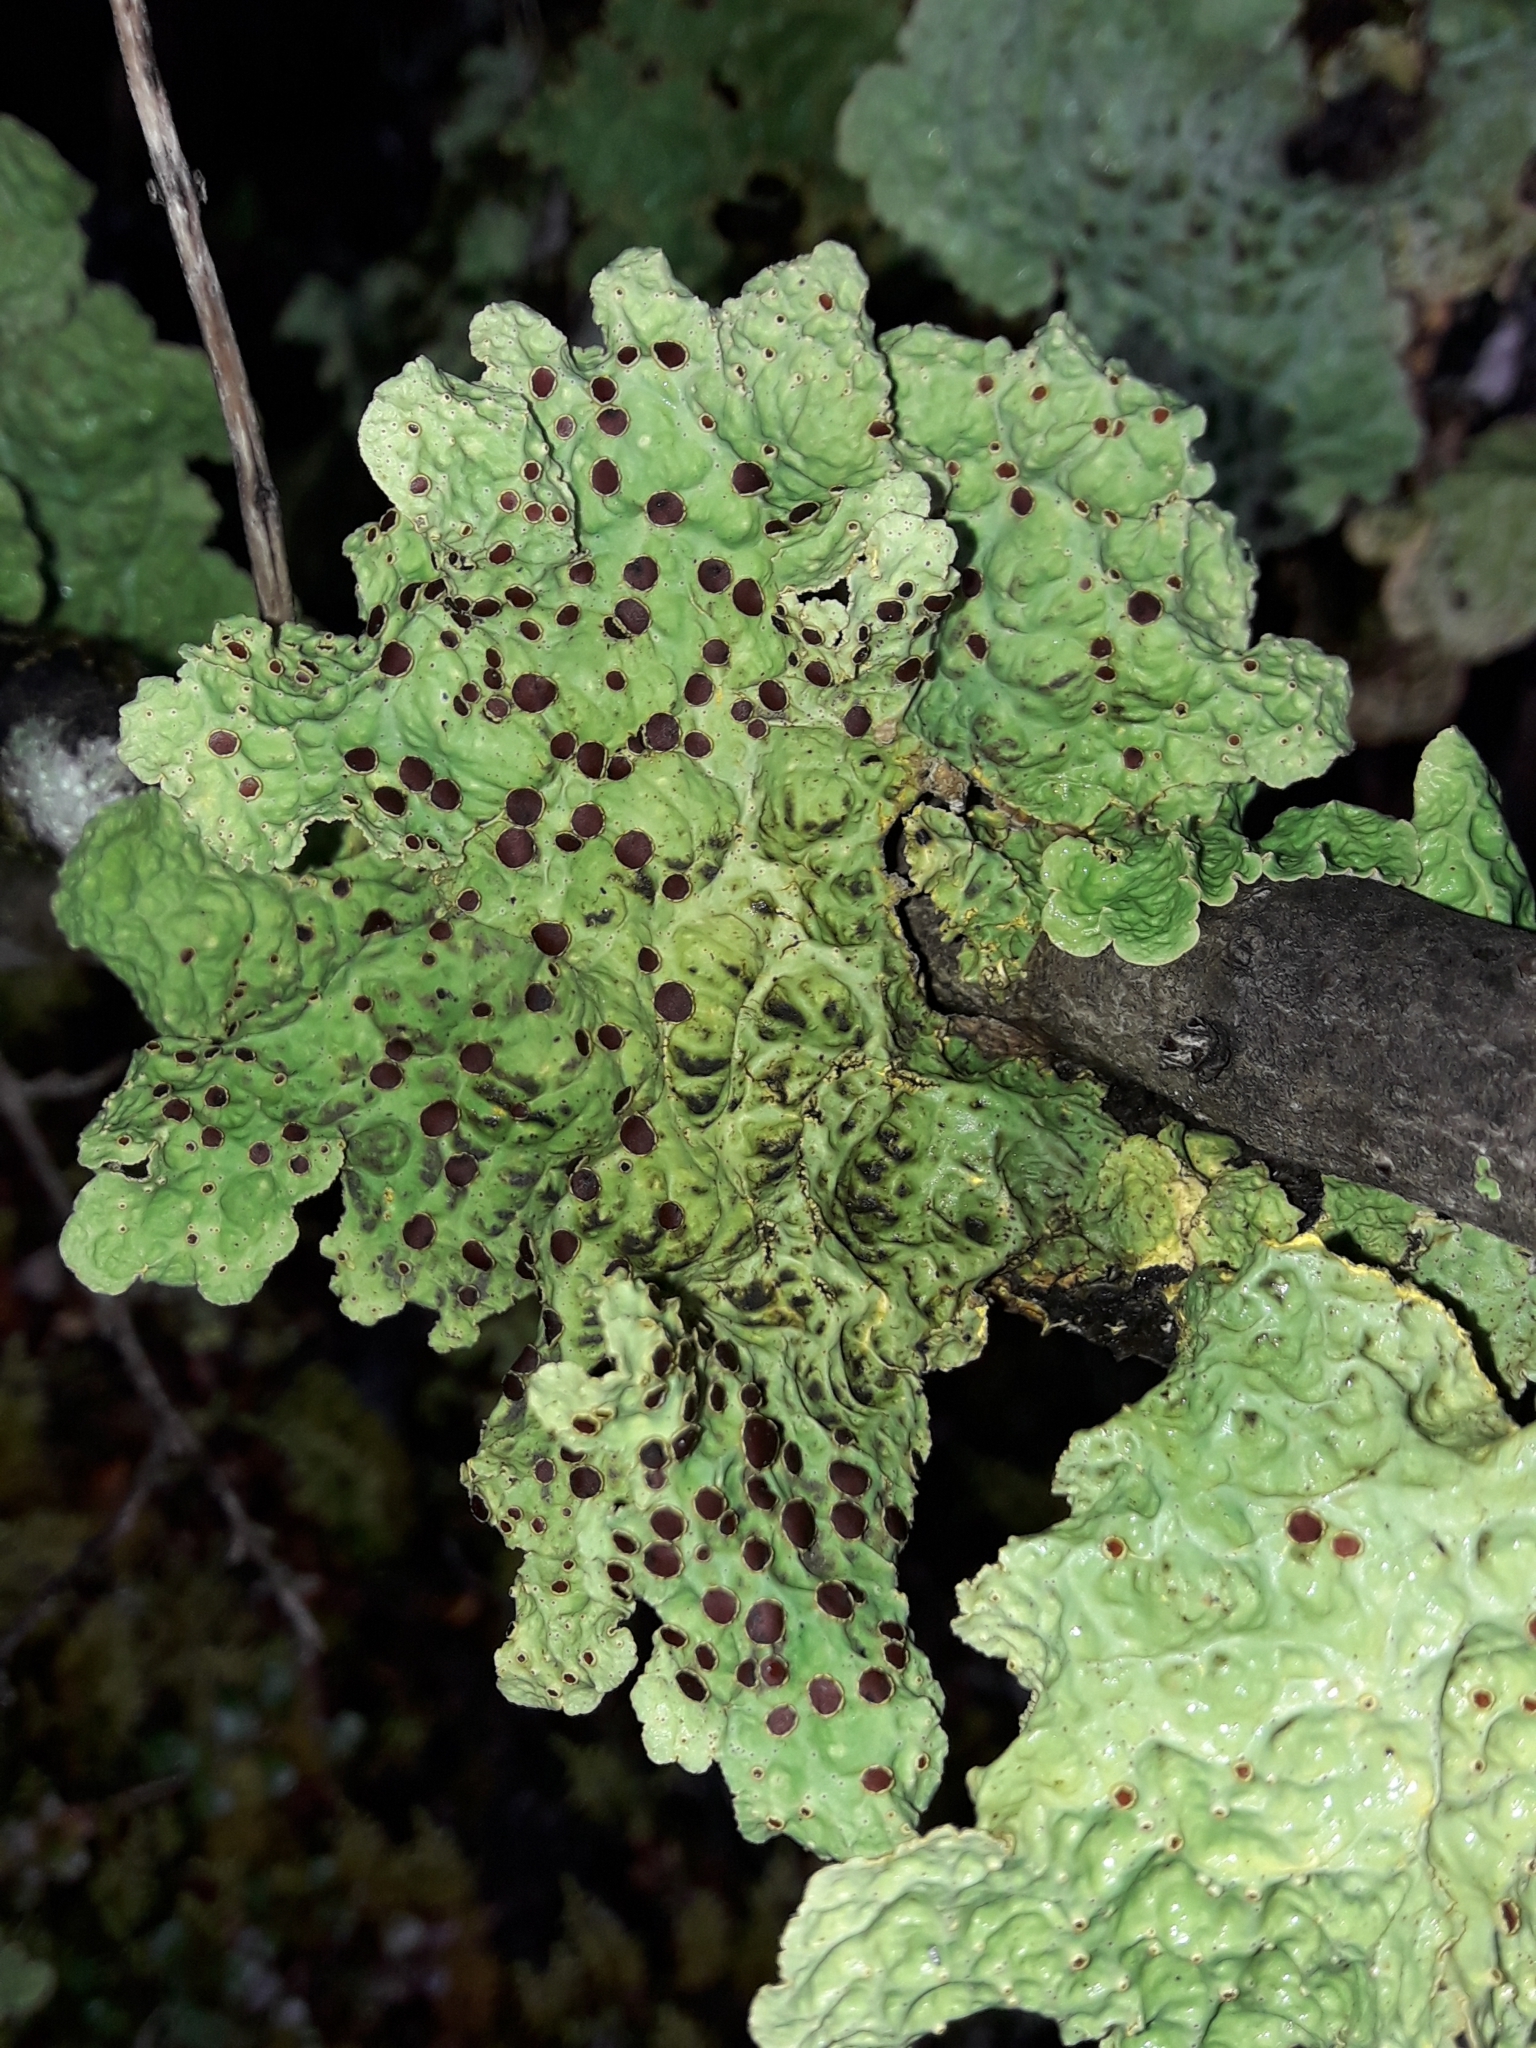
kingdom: Fungi
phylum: Ascomycota
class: Lecanoromycetes
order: Peltigerales
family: Lobariaceae
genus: Yarrumia
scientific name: Yarrumia coronata
